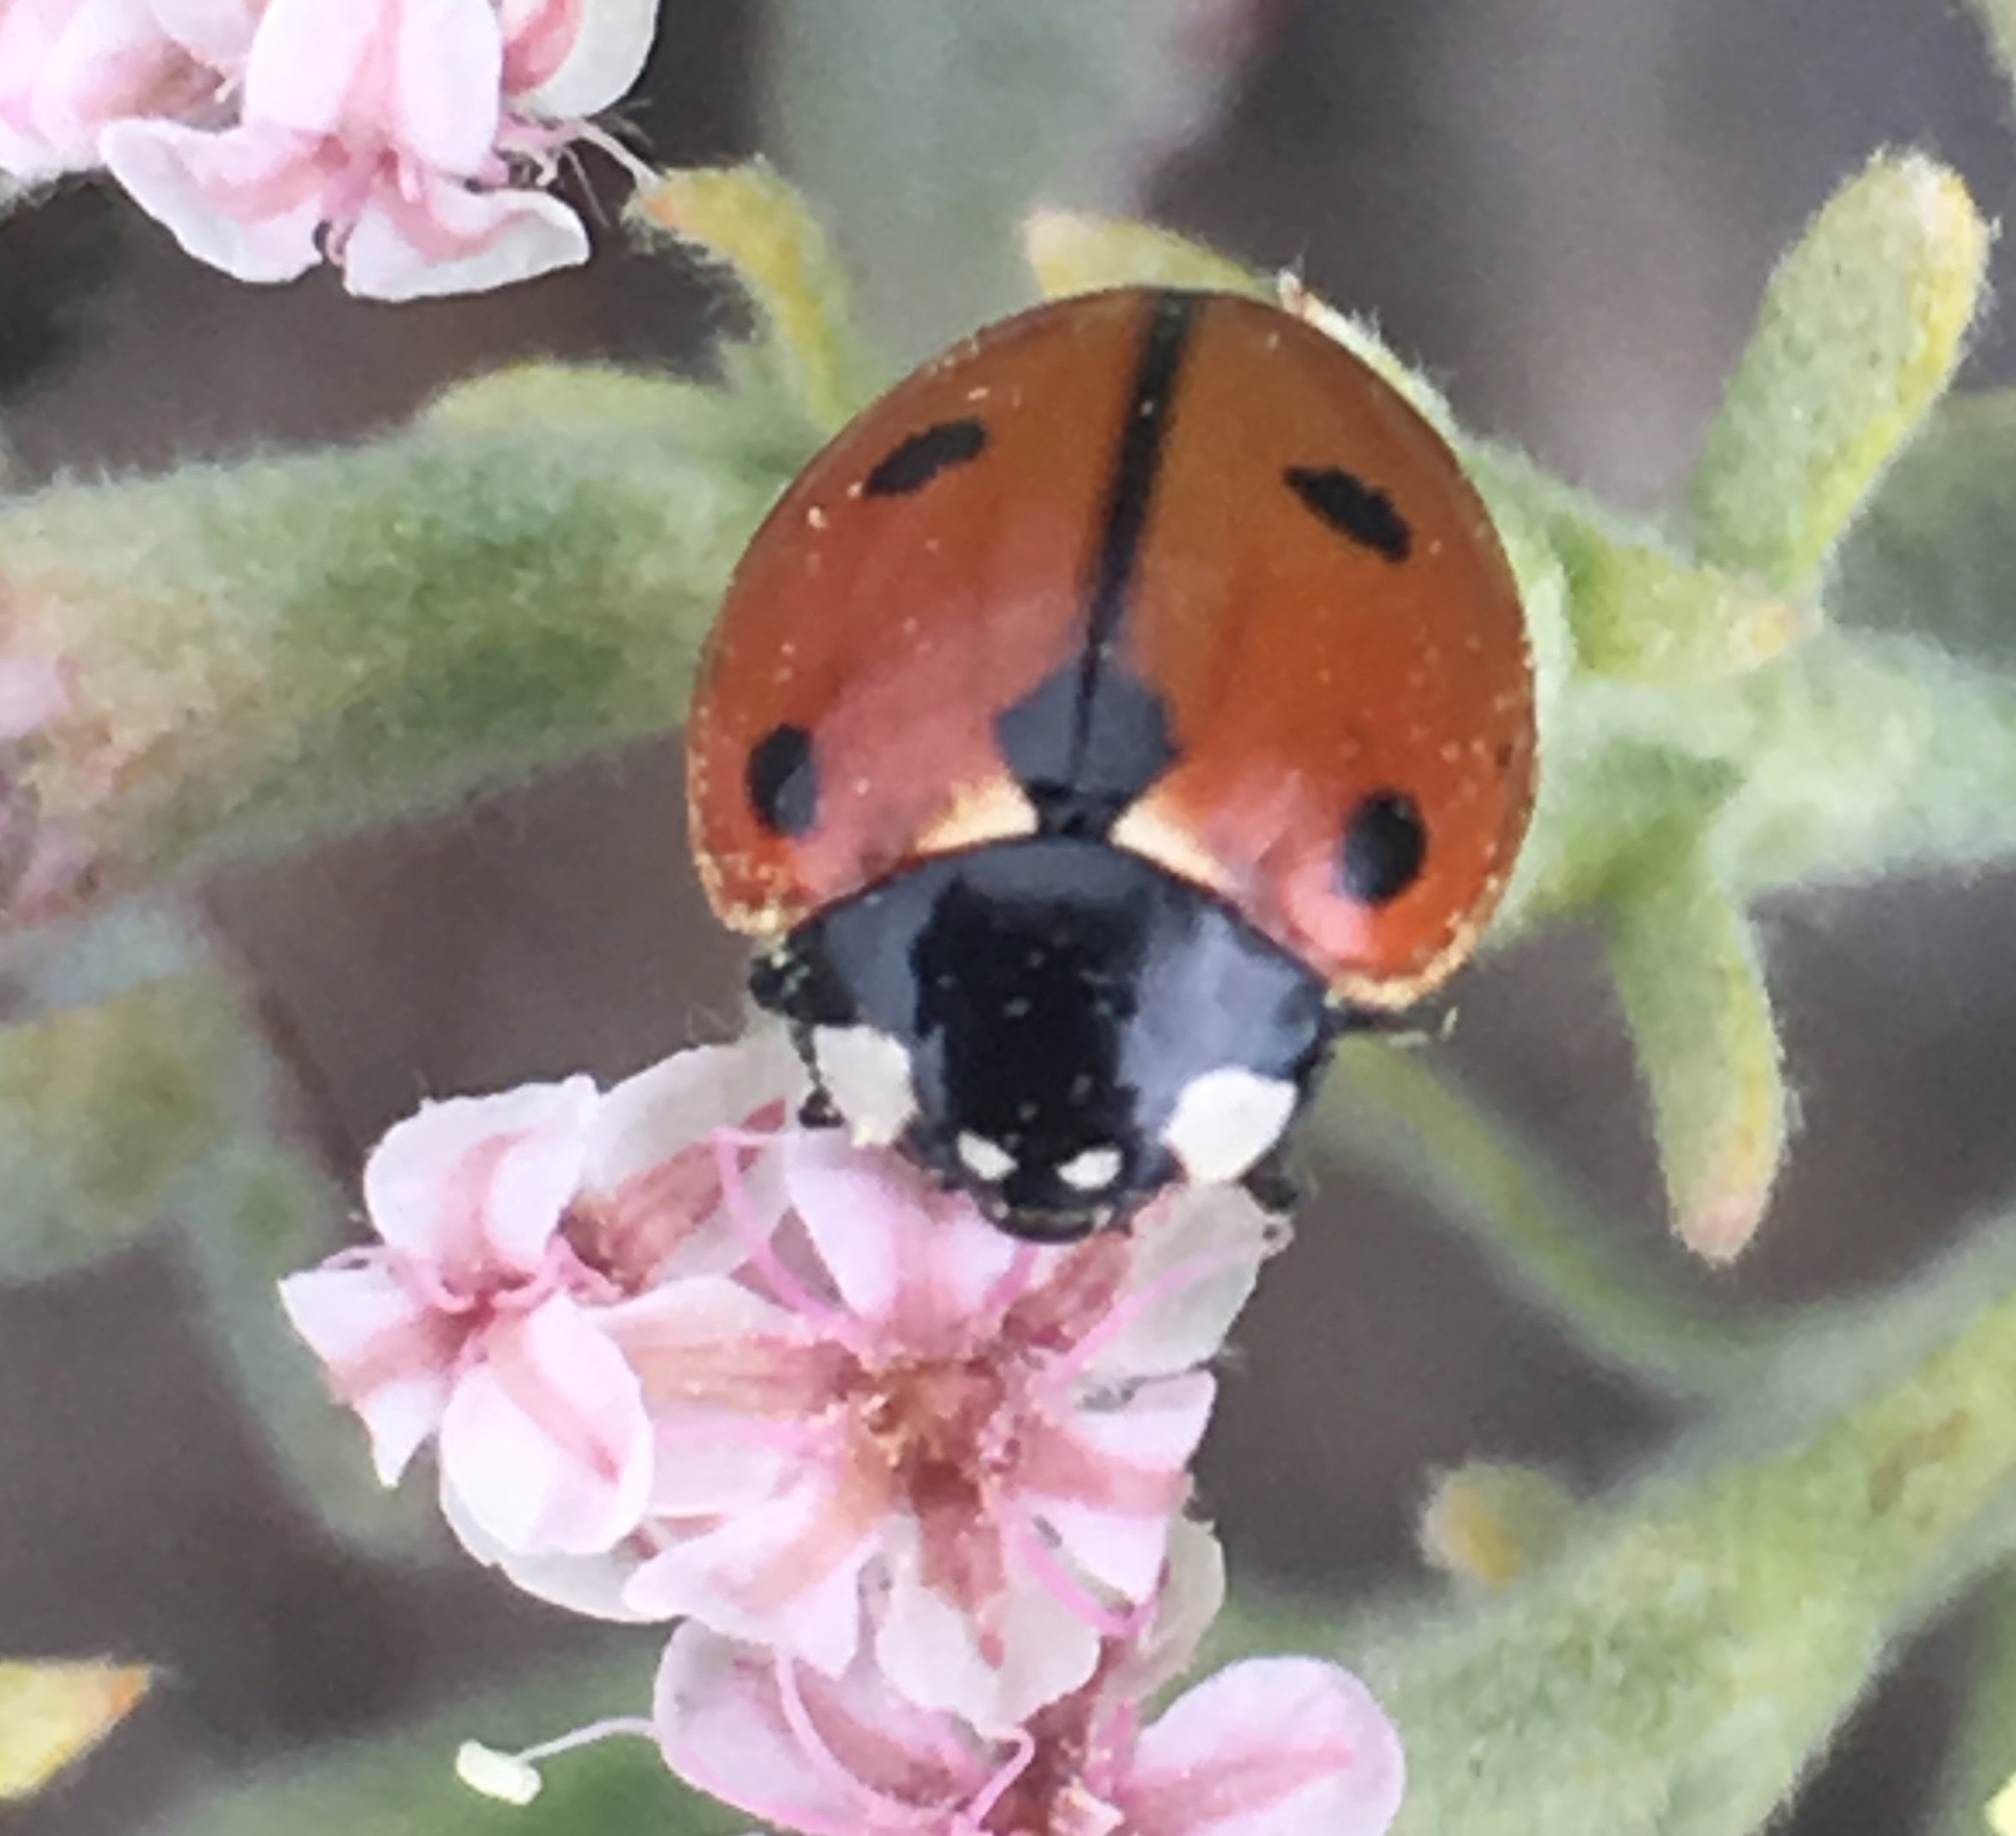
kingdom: Animalia
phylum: Arthropoda
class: Insecta
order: Coleoptera
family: Coccinellidae
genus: Coccinella
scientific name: Coccinella californica
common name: Lady beetle
